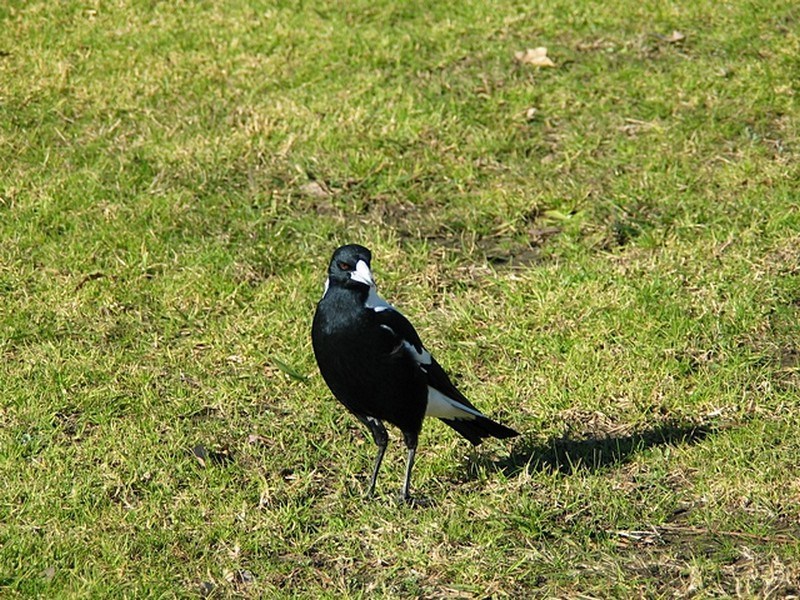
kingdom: Animalia
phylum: Chordata
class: Aves
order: Passeriformes
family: Cracticidae
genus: Gymnorhina
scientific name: Gymnorhina tibicen
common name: Australian magpie
